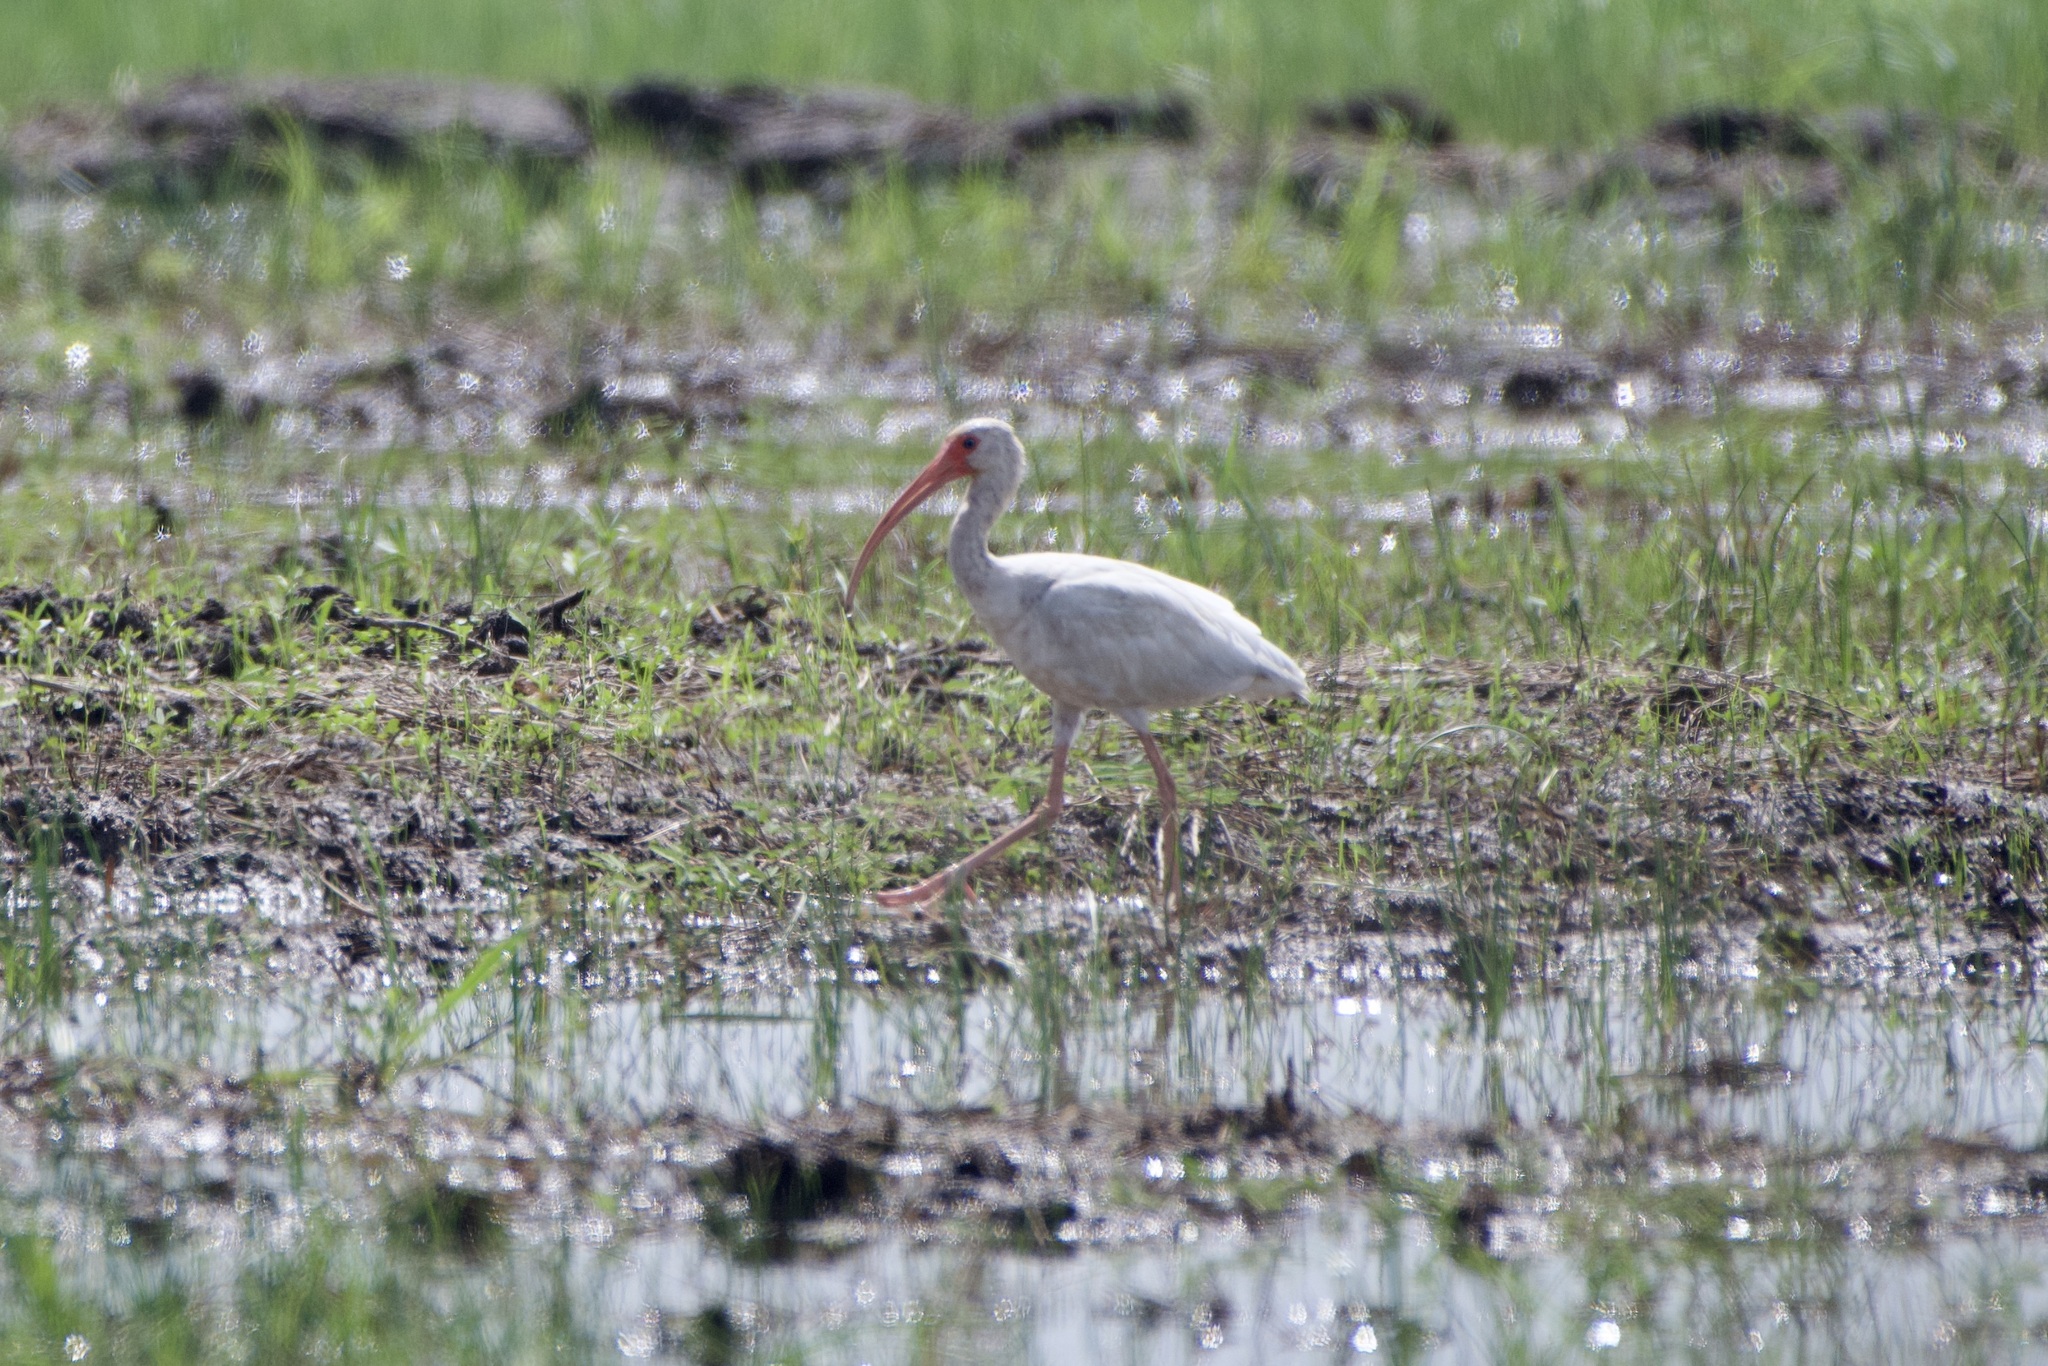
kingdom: Animalia
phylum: Chordata
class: Aves
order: Pelecaniformes
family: Threskiornithidae
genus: Eudocimus
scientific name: Eudocimus albus
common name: White ibis
